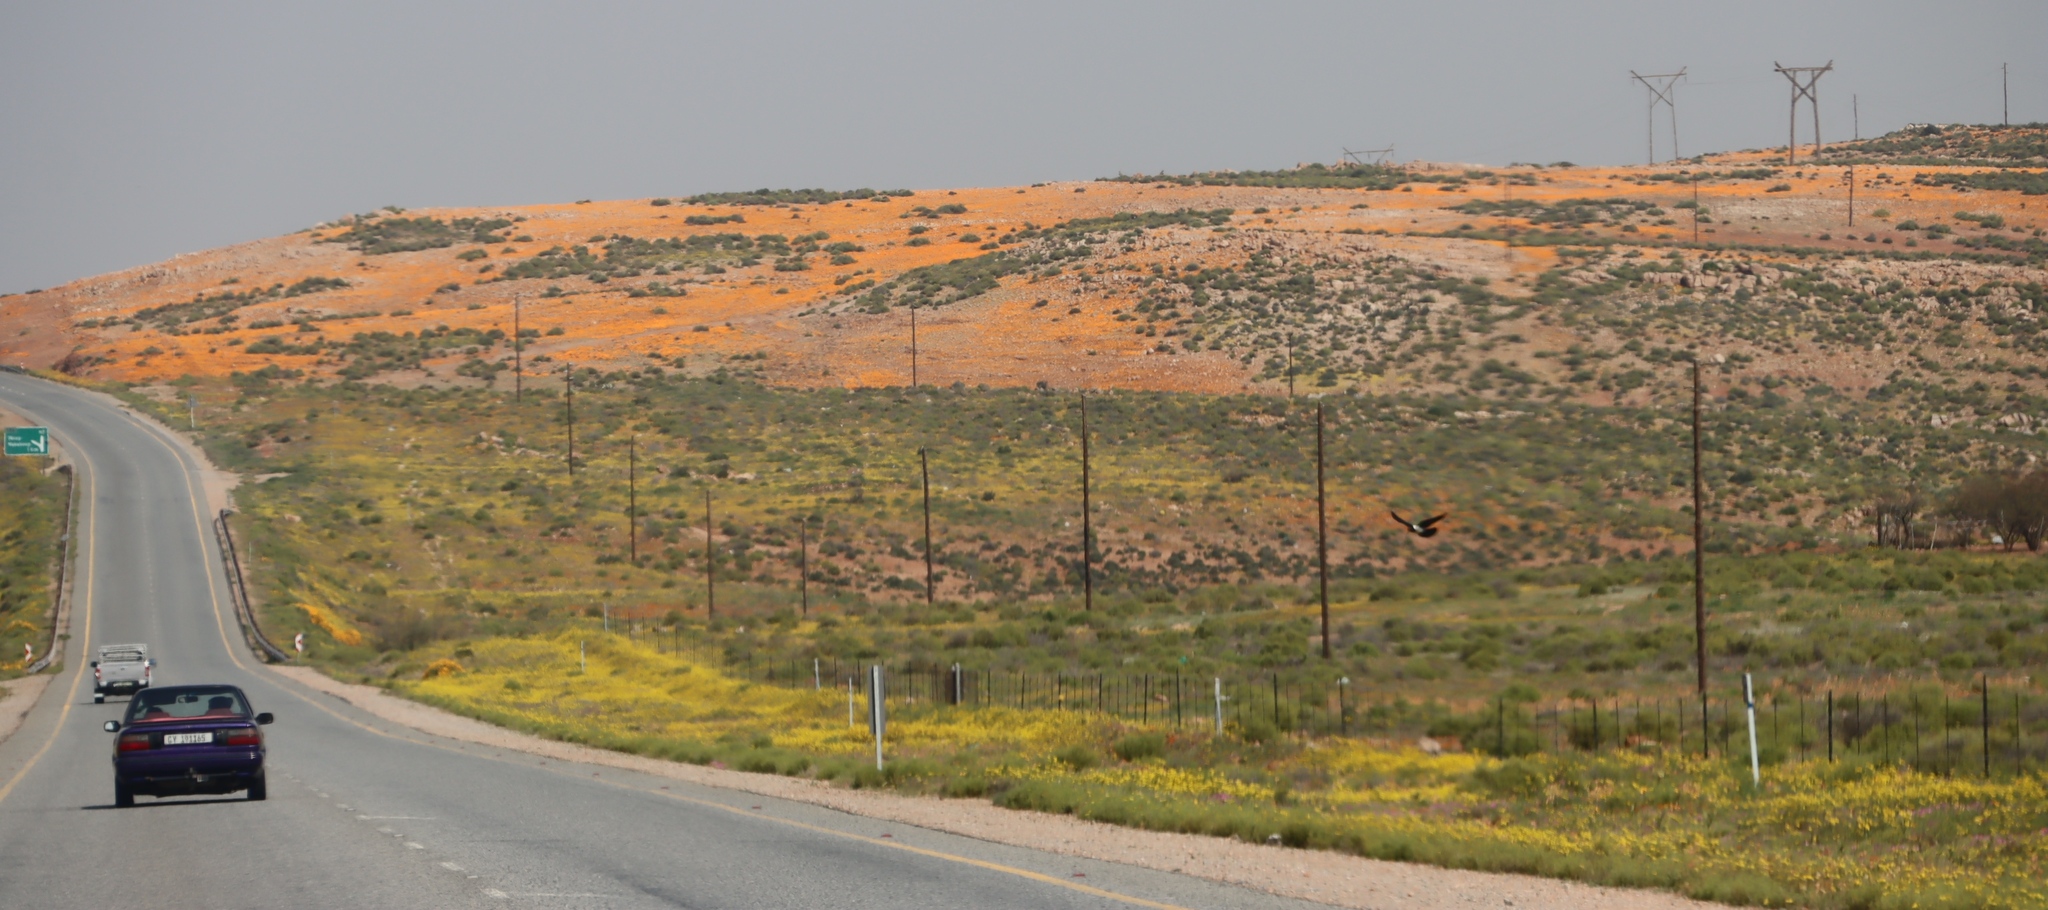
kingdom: Animalia
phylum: Chordata
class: Aves
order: Passeriformes
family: Corvidae
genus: Corvus
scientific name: Corvus albus
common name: Pied crow
